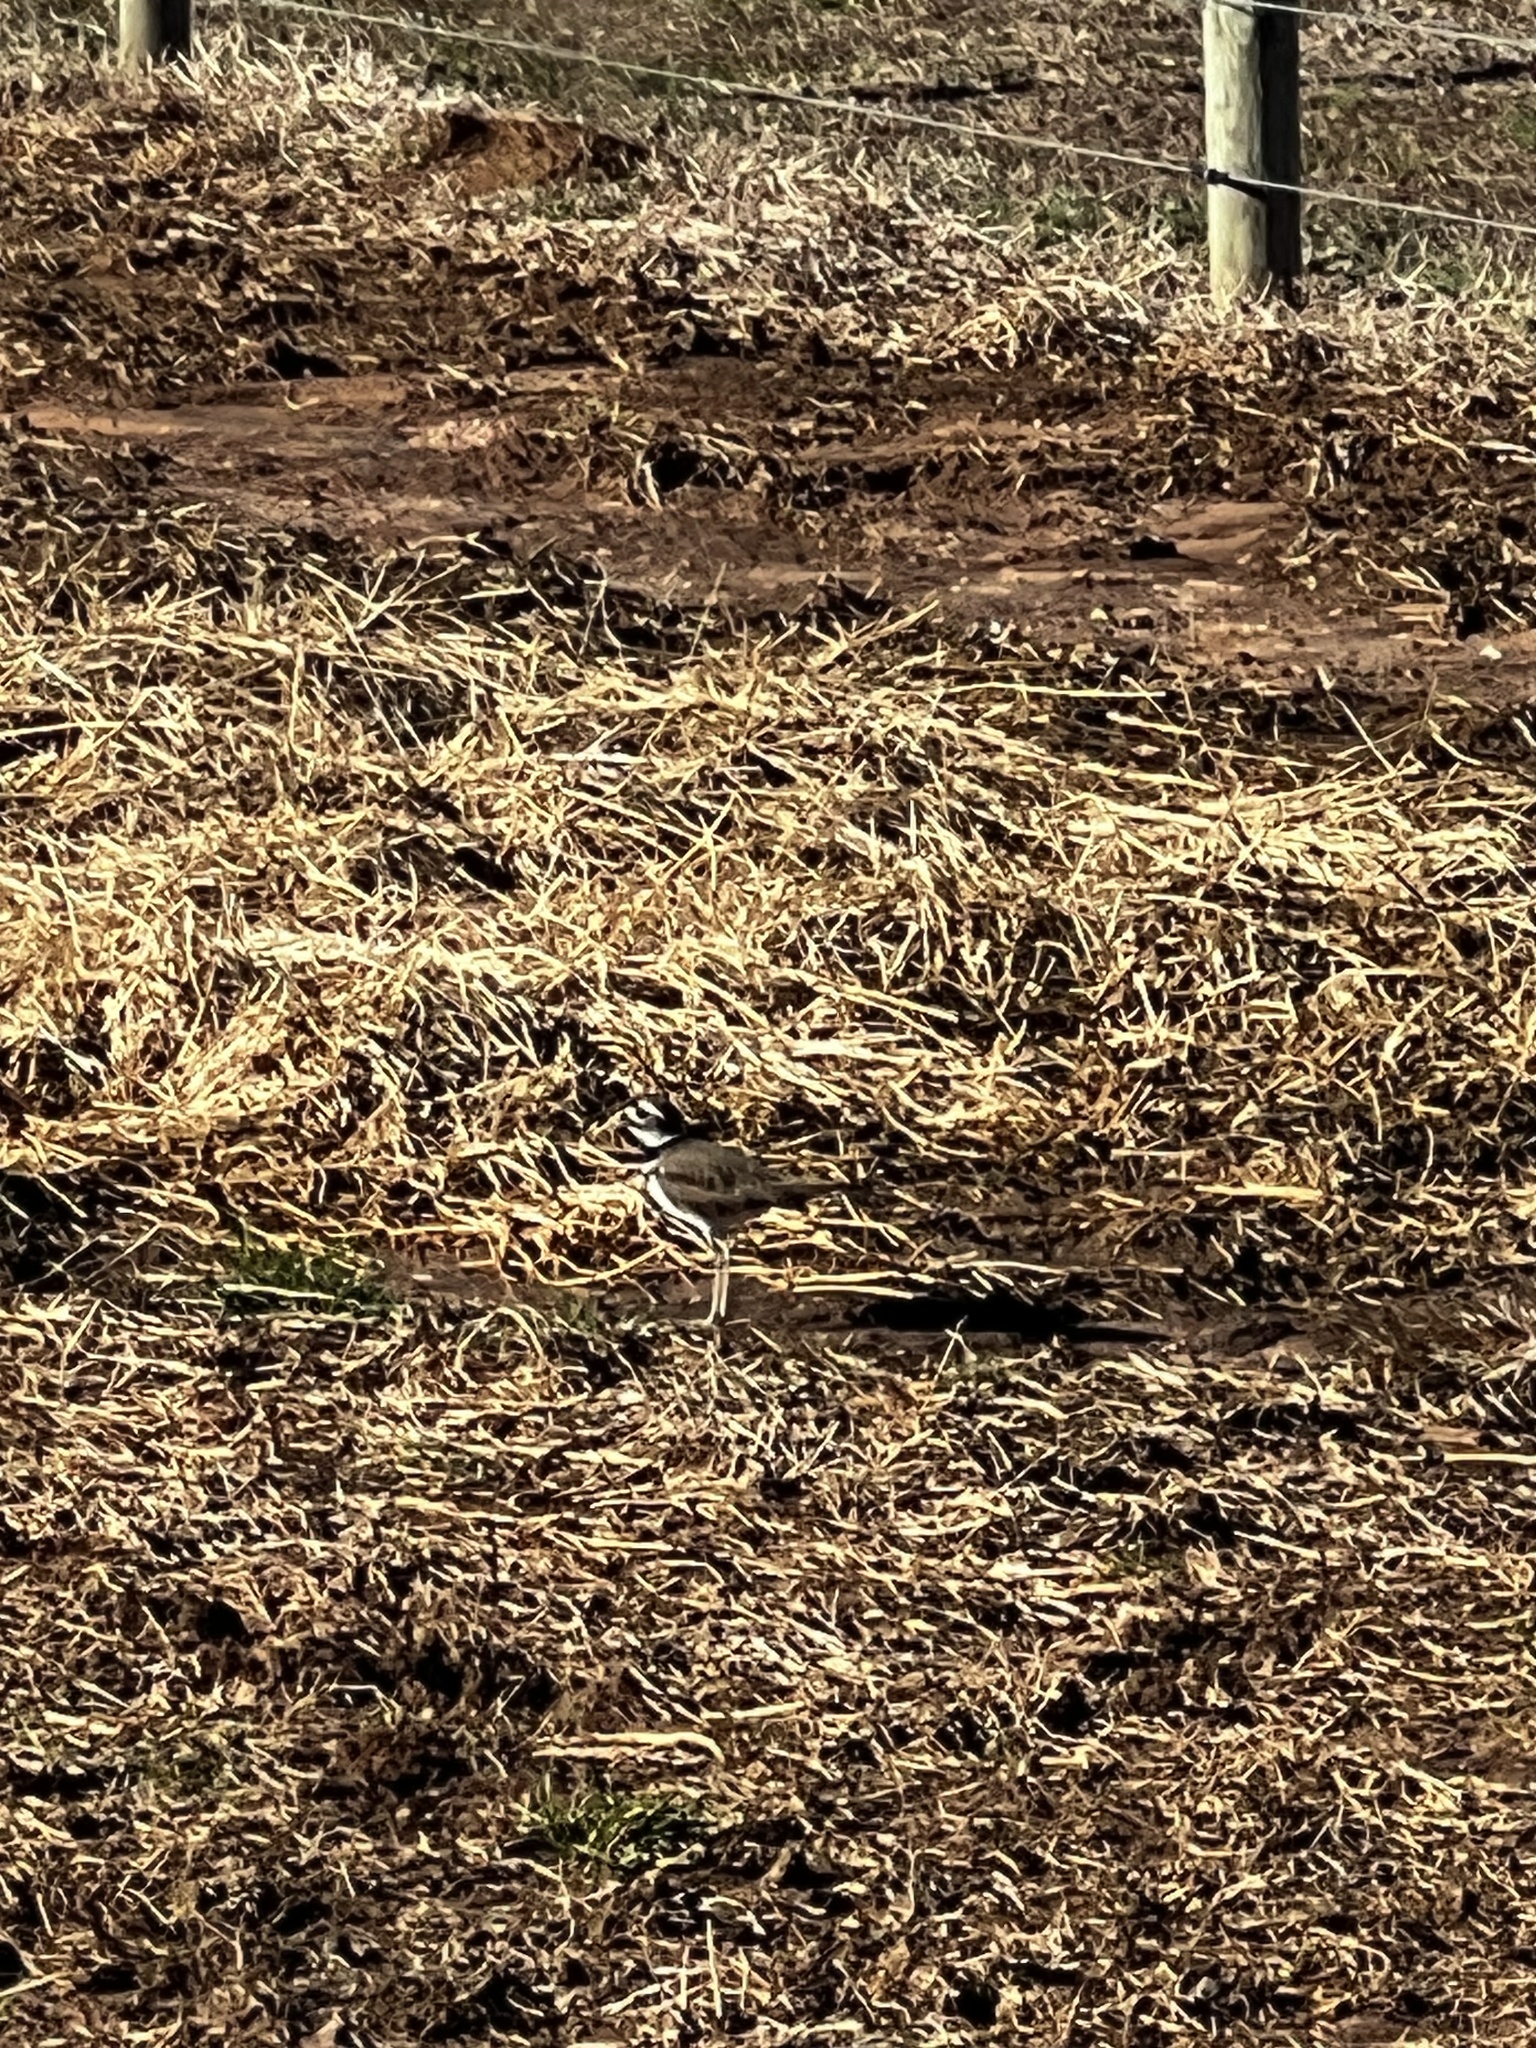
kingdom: Animalia
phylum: Chordata
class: Aves
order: Charadriiformes
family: Charadriidae
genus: Charadrius
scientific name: Charadrius vociferus
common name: Killdeer
